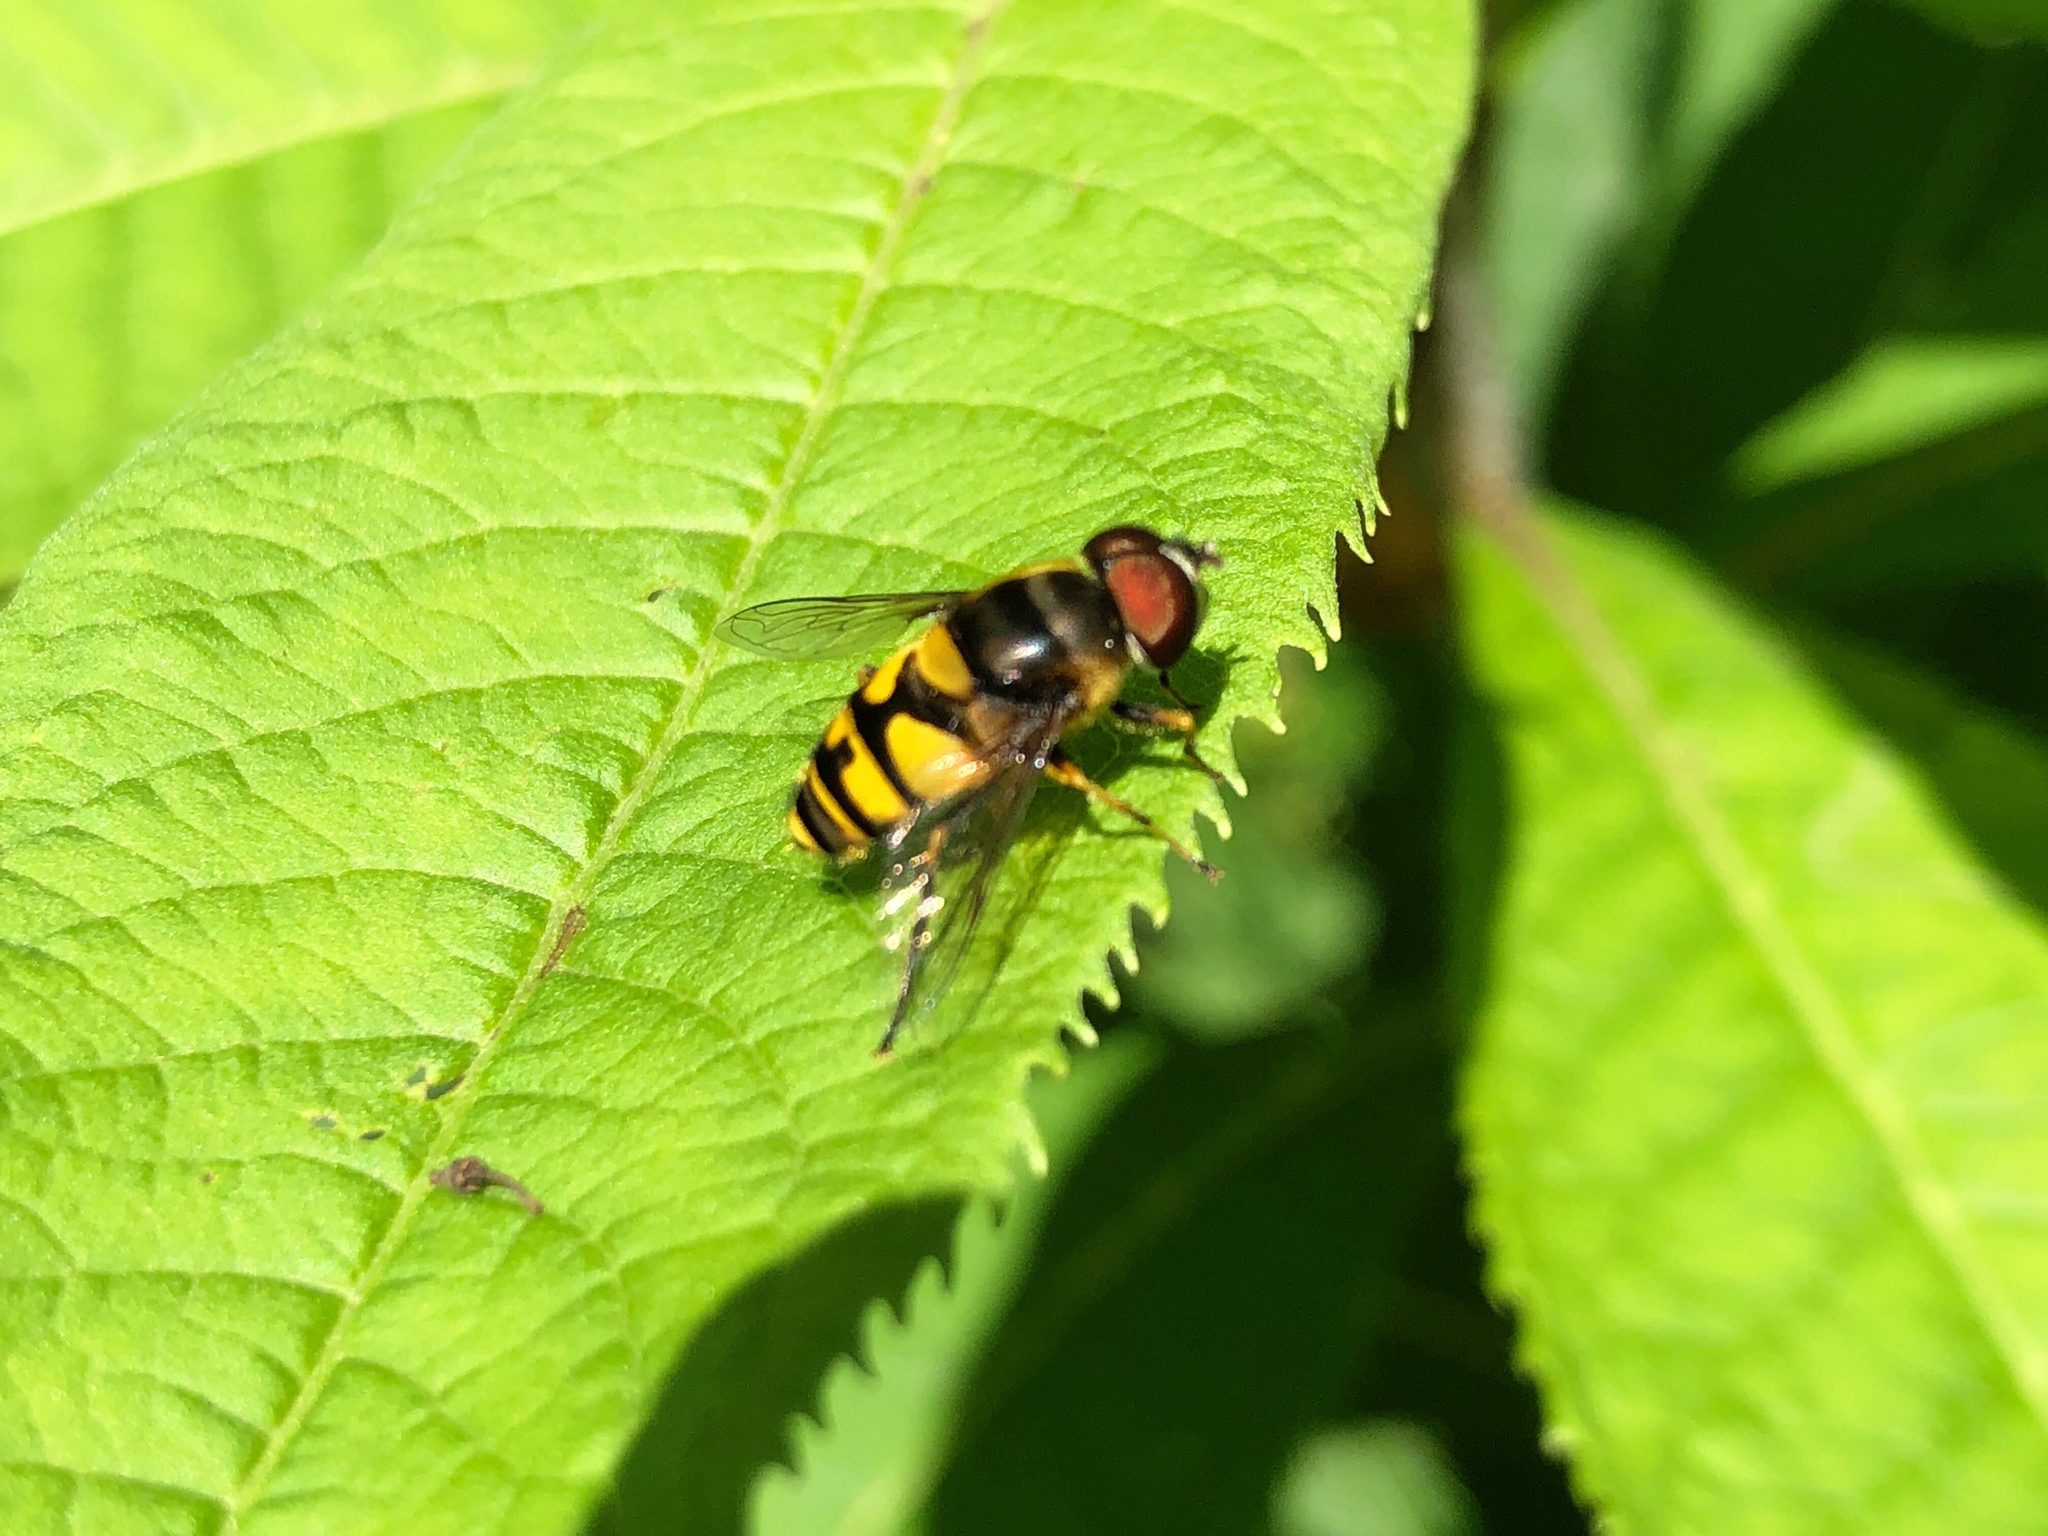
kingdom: Animalia
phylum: Arthropoda
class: Insecta
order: Diptera
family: Syrphidae
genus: Eristalis
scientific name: Eristalis transversa
